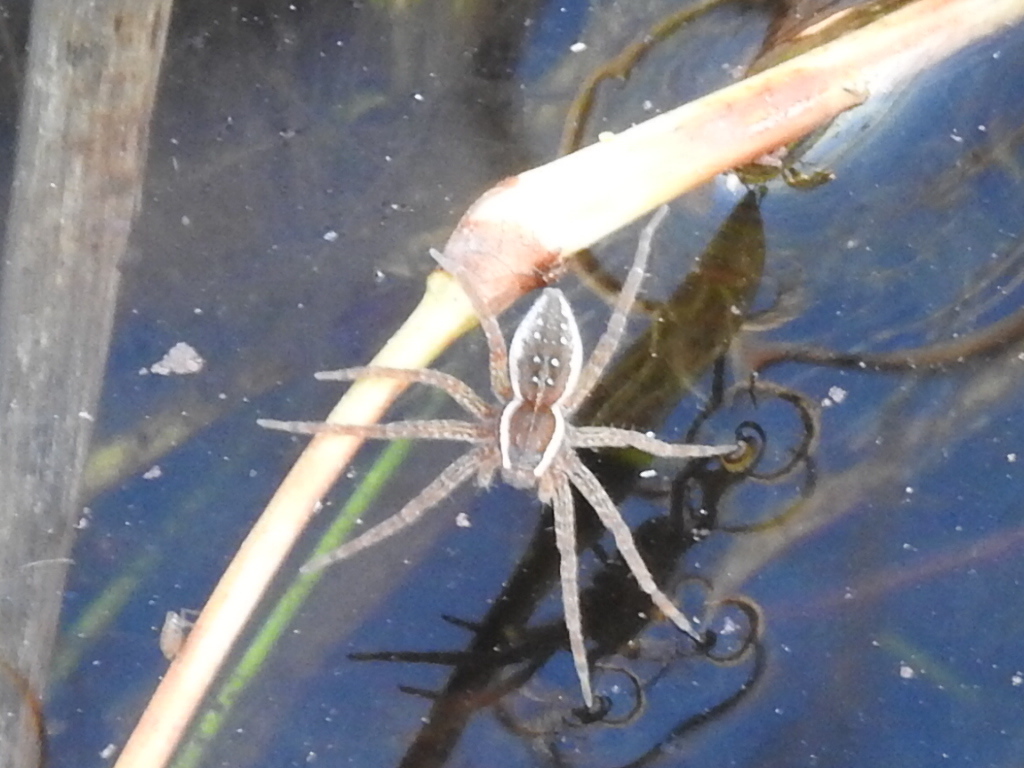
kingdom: Animalia
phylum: Arthropoda
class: Arachnida
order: Araneae
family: Pisauridae
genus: Dolomedes
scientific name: Dolomedes triton
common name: Six-spotted fishing spider
